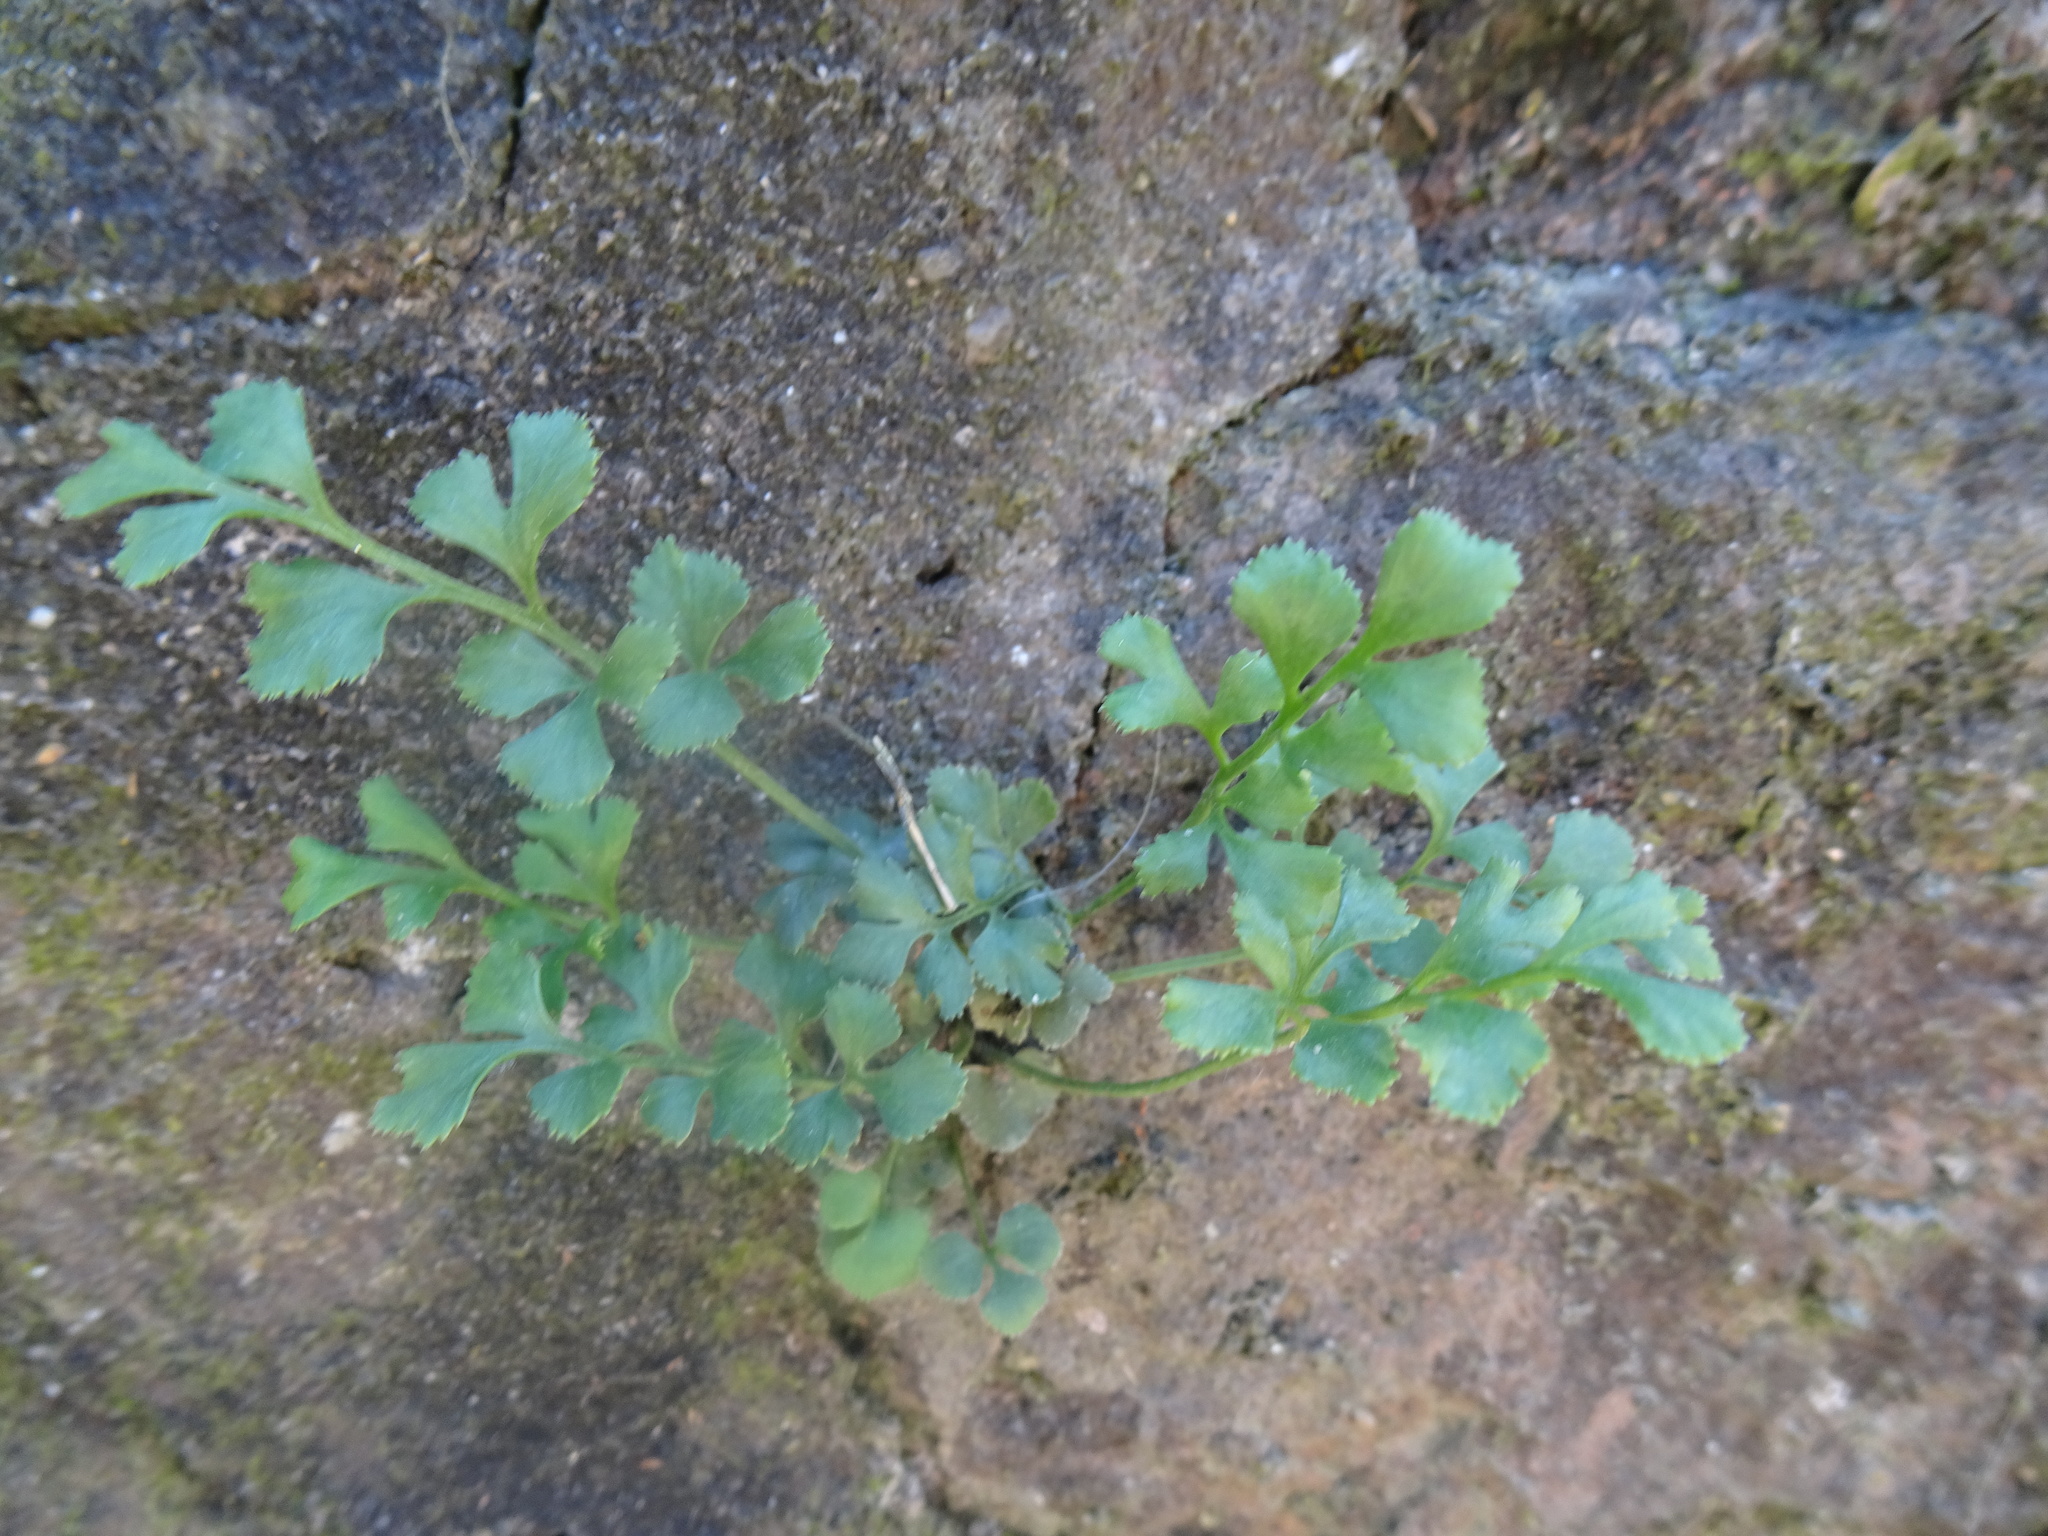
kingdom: Plantae
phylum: Tracheophyta
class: Polypodiopsida
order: Polypodiales
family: Aspleniaceae
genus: Asplenium
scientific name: Asplenium ruta-muraria
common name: Wall-rue
